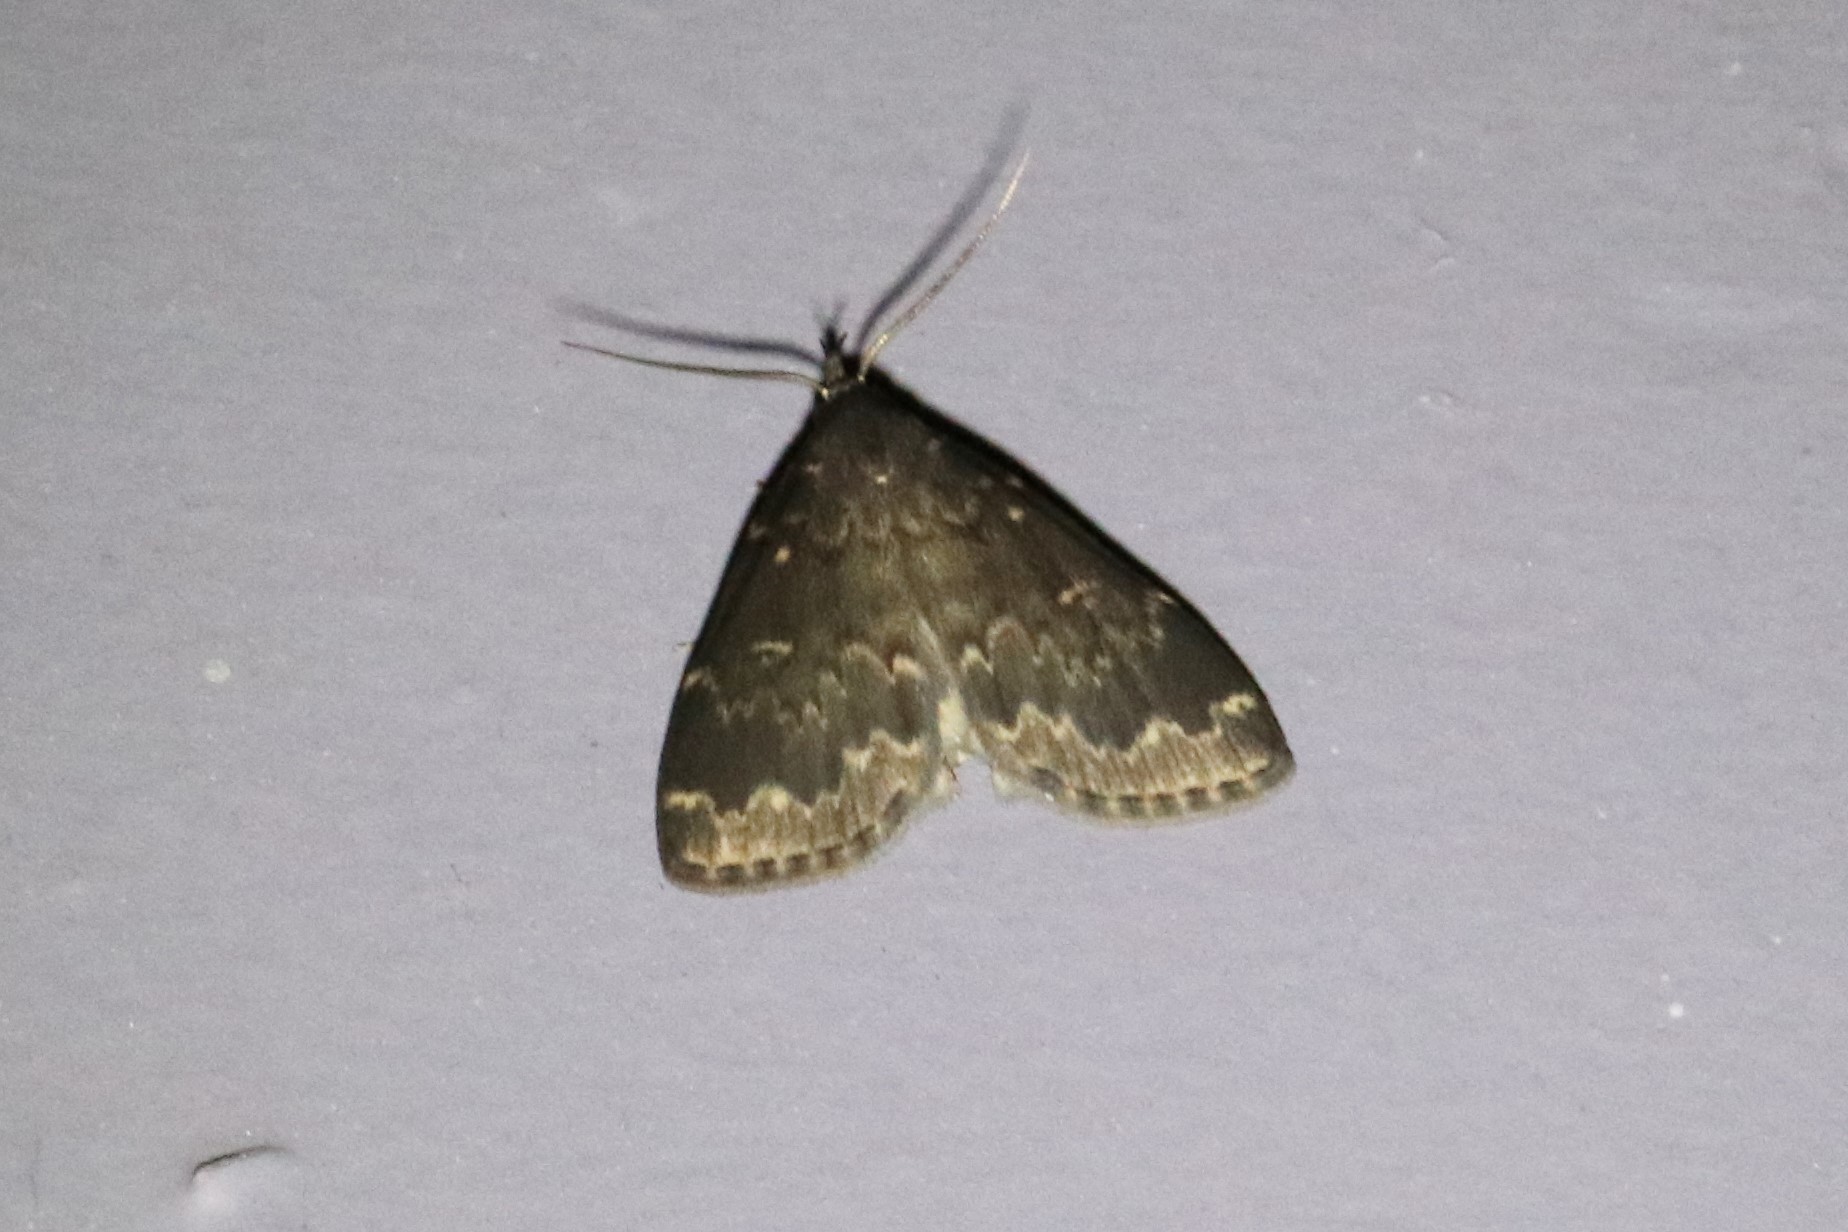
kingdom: Animalia
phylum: Arthropoda
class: Insecta
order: Lepidoptera
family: Erebidae
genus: Idia
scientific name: Idia lubricalis
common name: Twin-striped tabby
